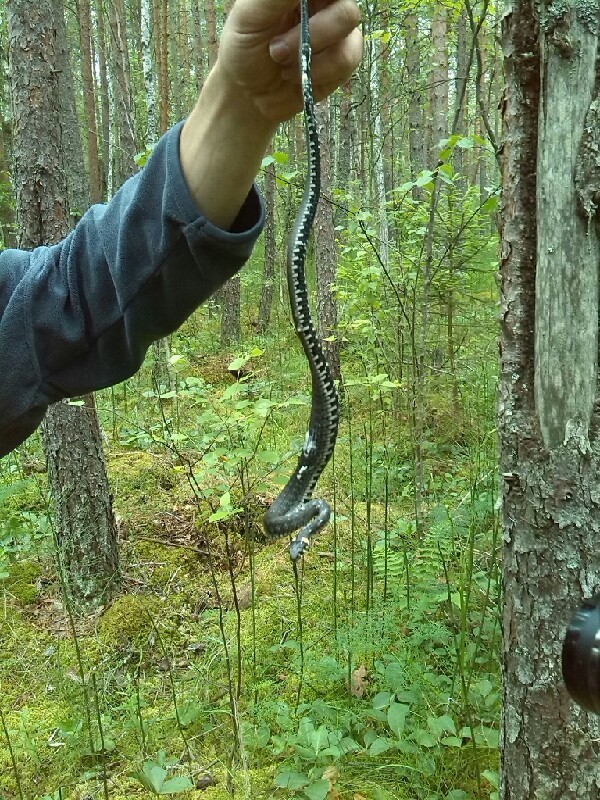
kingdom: Animalia
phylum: Chordata
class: Squamata
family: Colubridae
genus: Natrix
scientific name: Natrix natrix
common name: Grass snake
